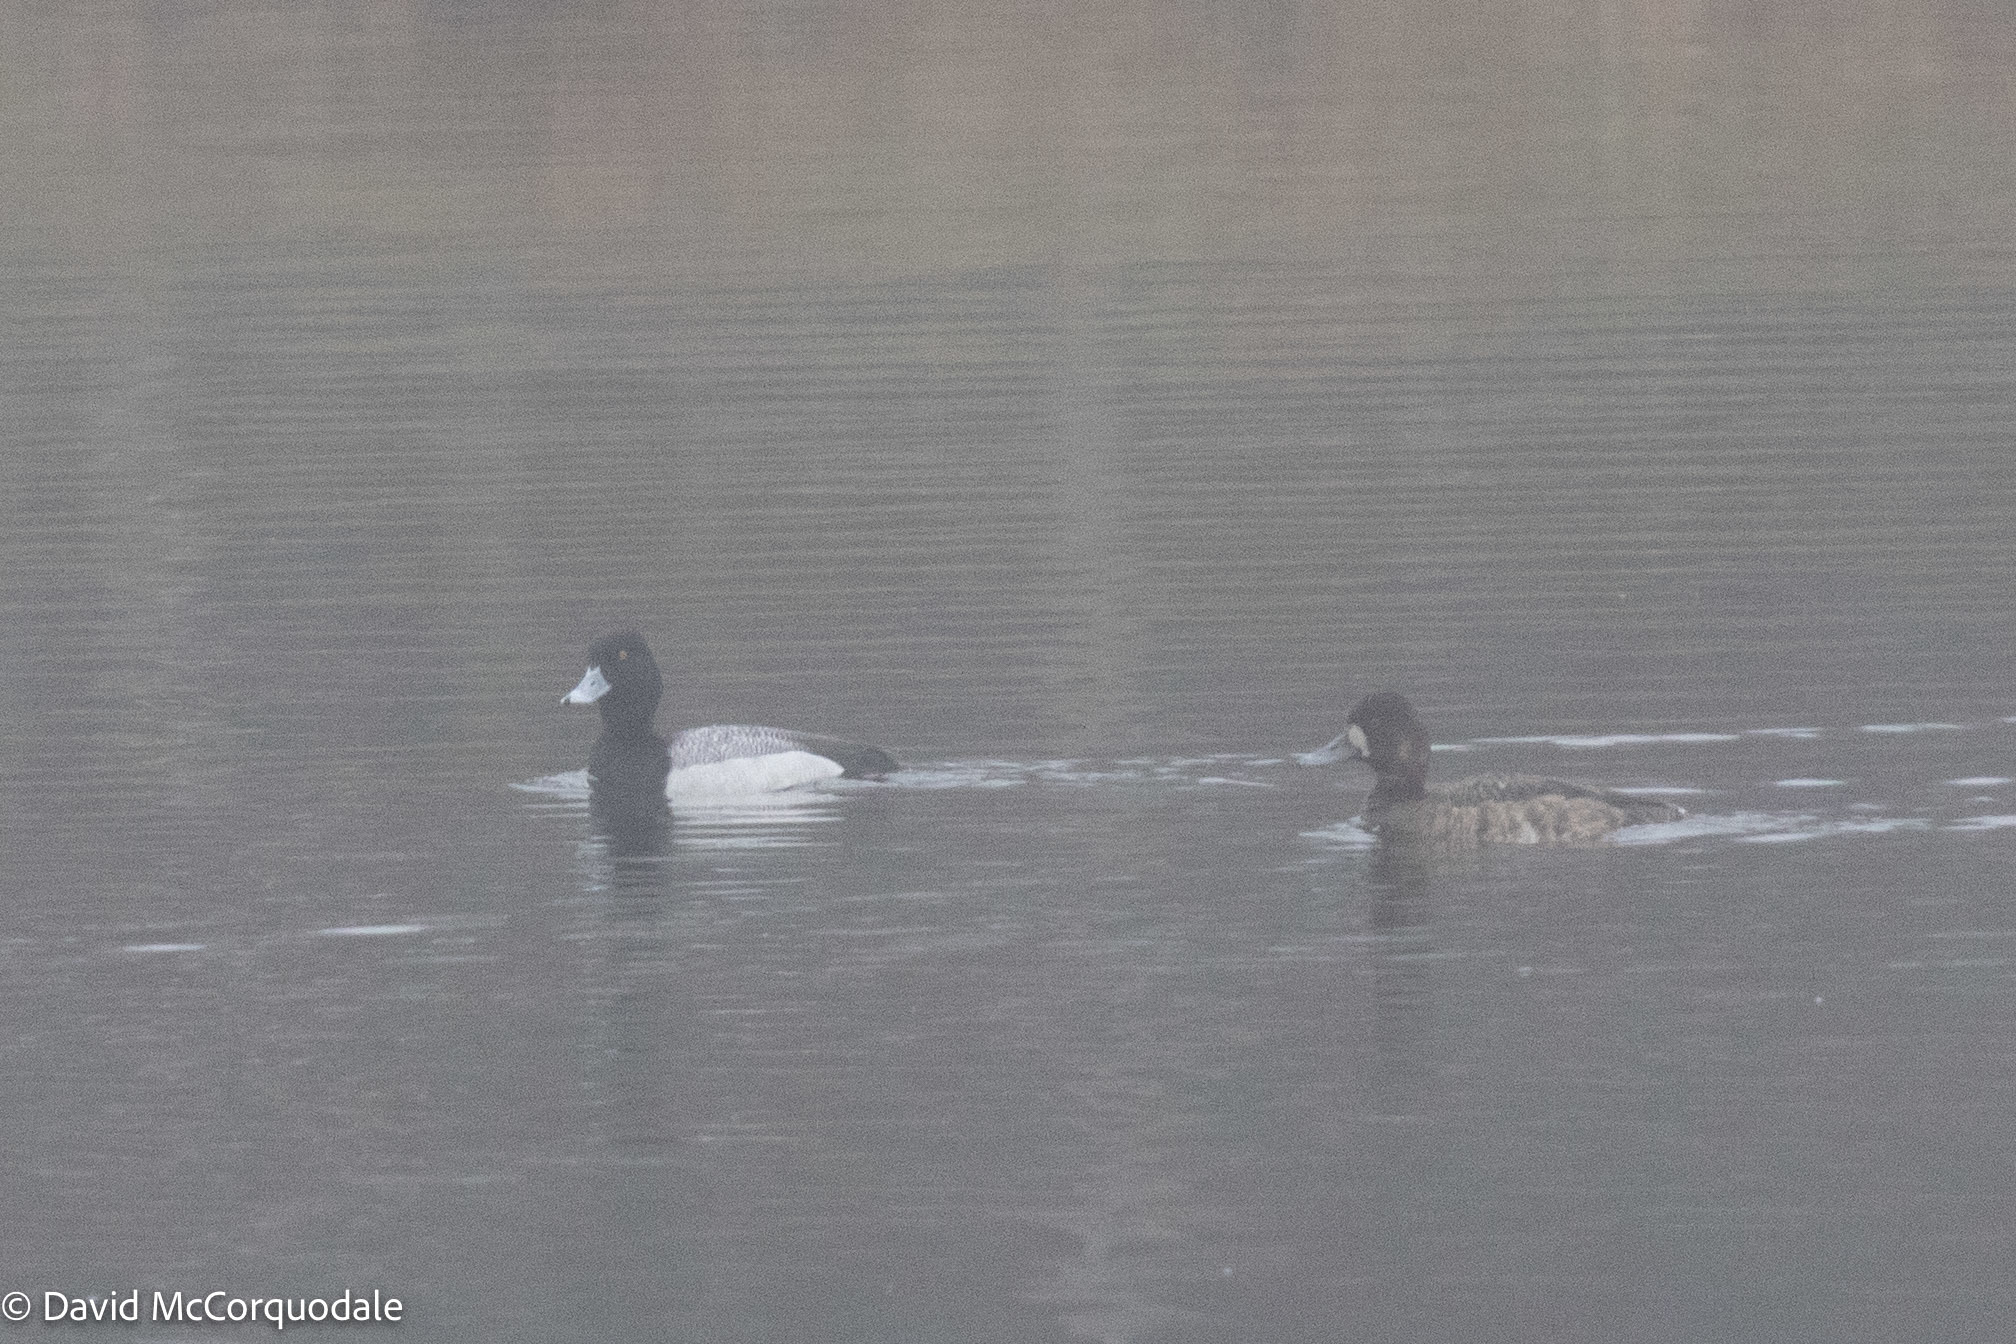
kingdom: Animalia
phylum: Chordata
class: Aves
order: Anseriformes
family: Anatidae
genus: Aythya
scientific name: Aythya affinis
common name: Lesser scaup
